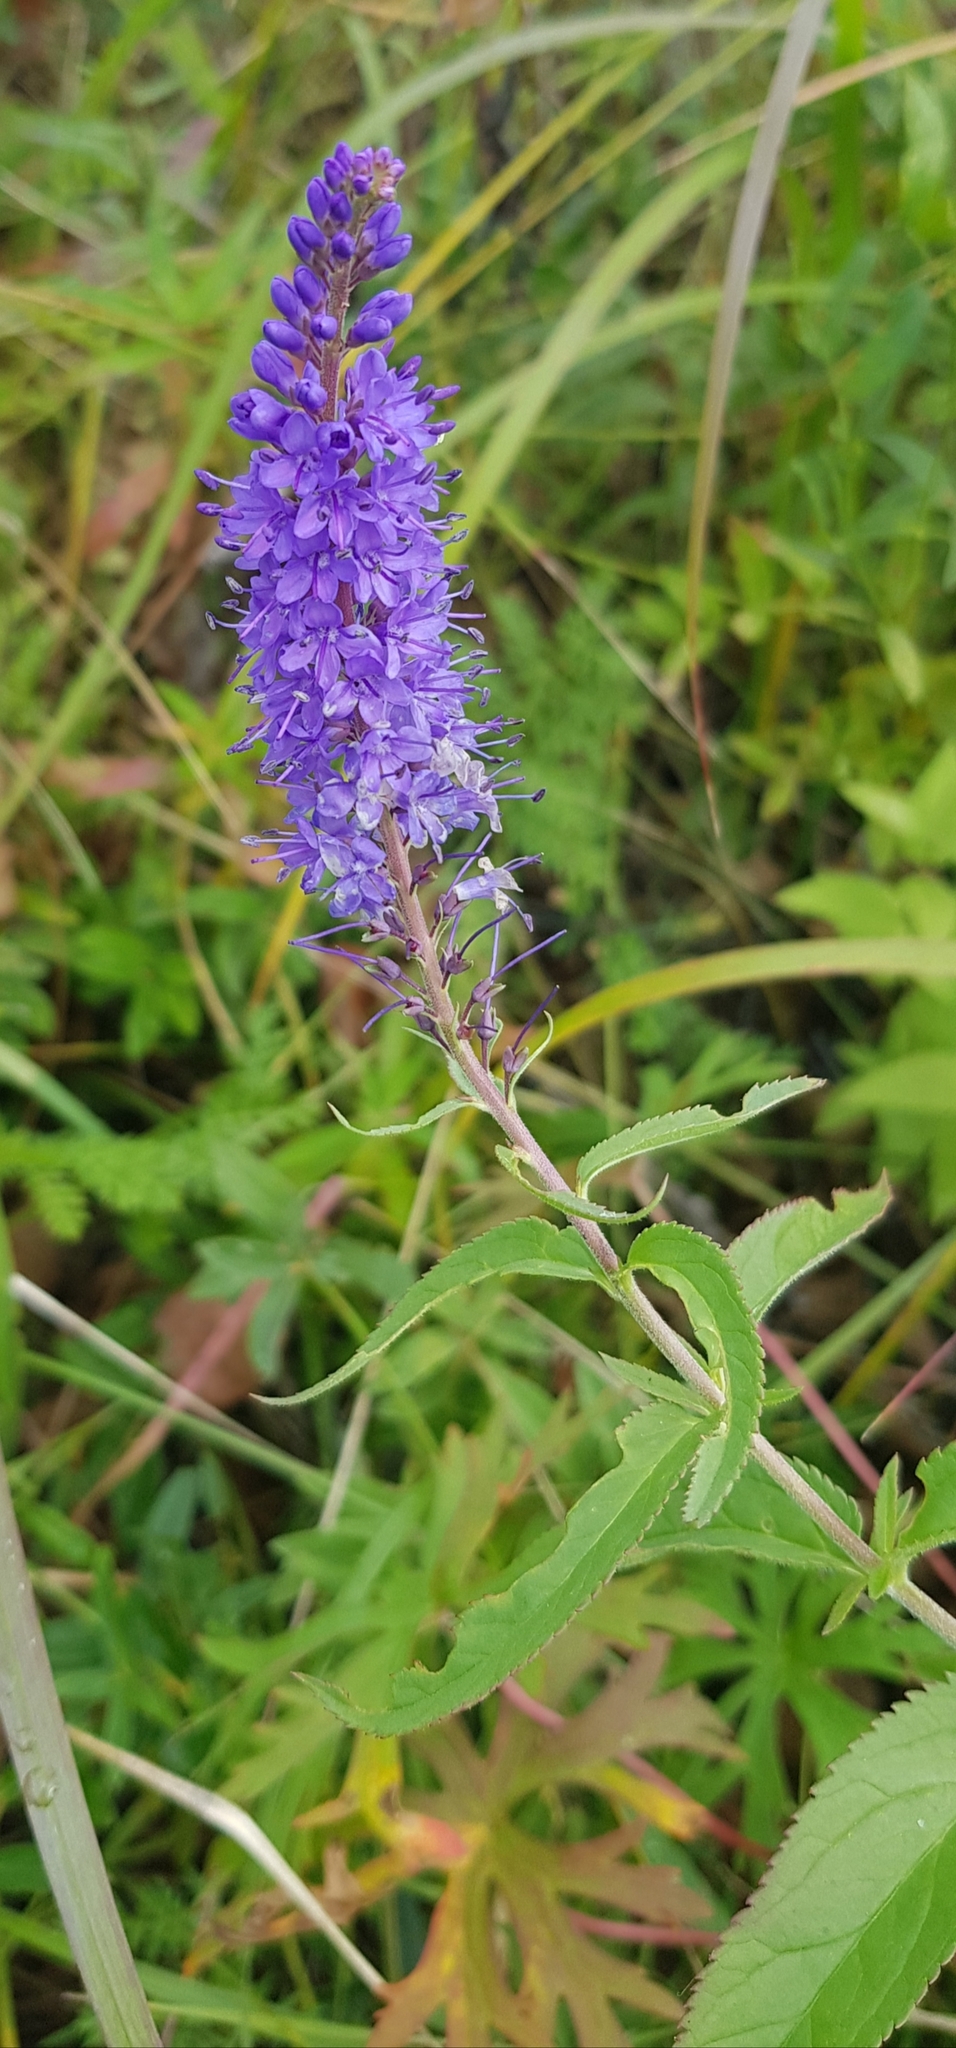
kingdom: Plantae
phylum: Tracheophyta
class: Magnoliopsida
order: Lamiales
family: Plantaginaceae
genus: Veronica
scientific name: Veronica longifolia
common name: Garden speedwell
